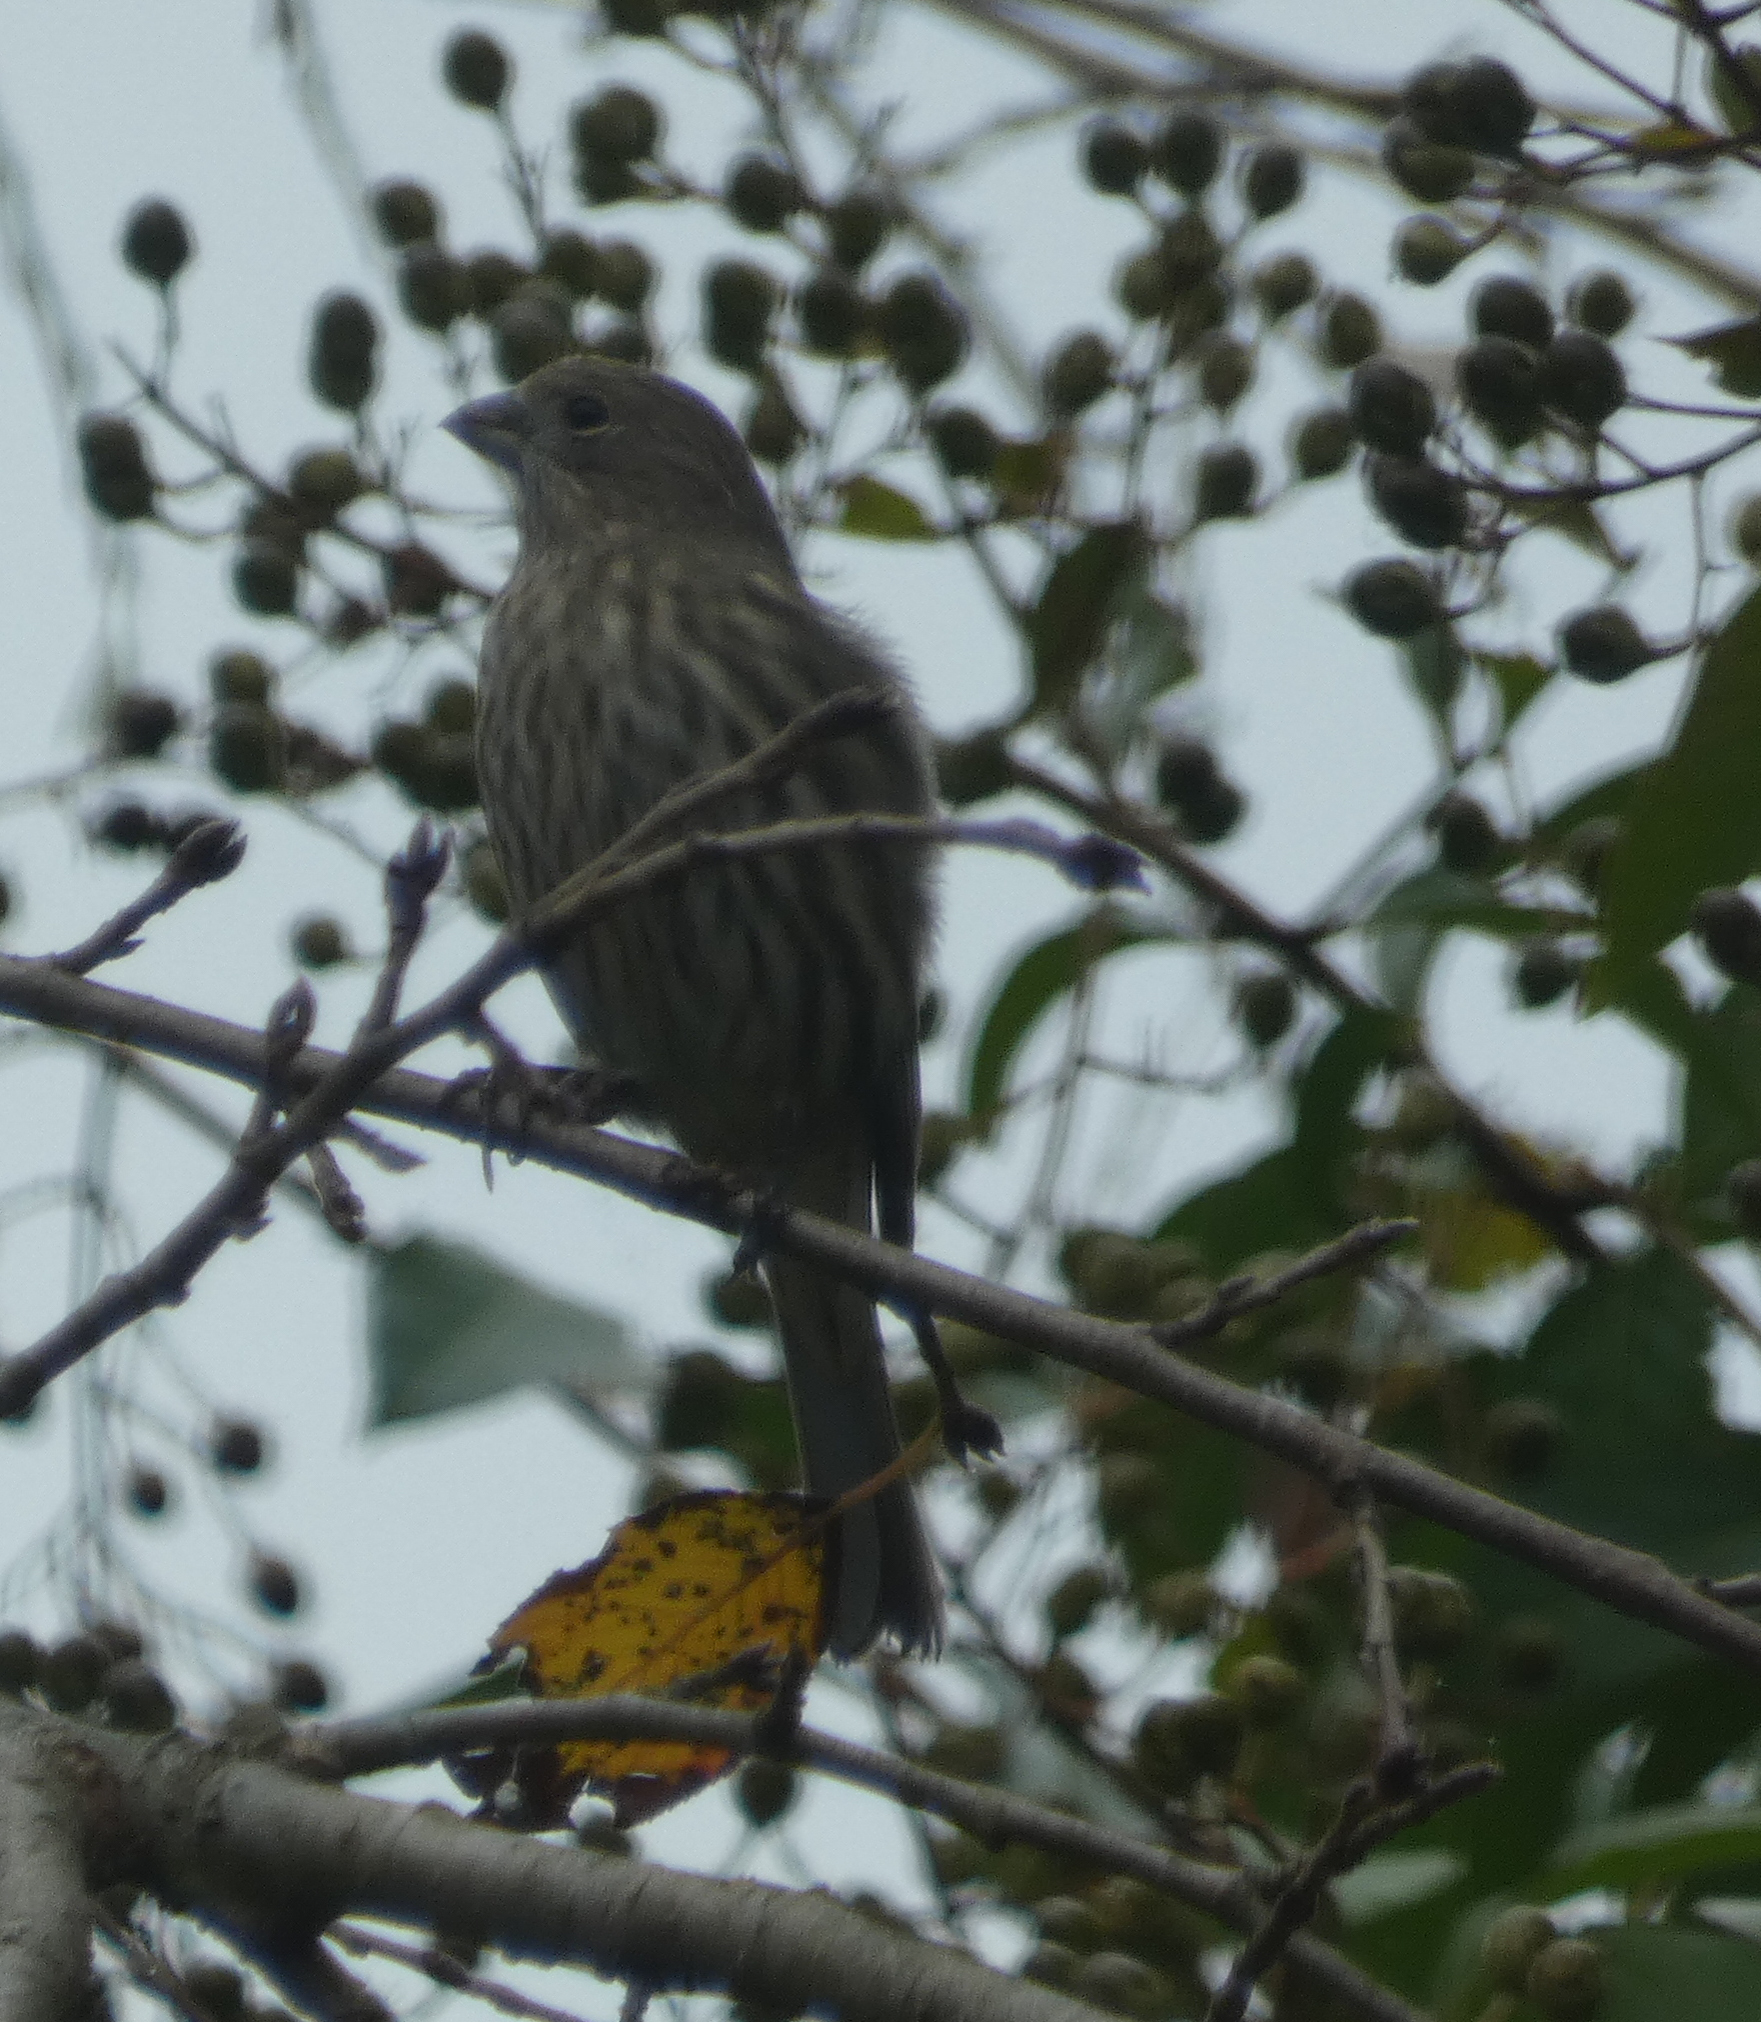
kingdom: Animalia
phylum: Chordata
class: Aves
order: Passeriformes
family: Fringillidae
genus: Haemorhous
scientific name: Haemorhous mexicanus
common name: House finch
